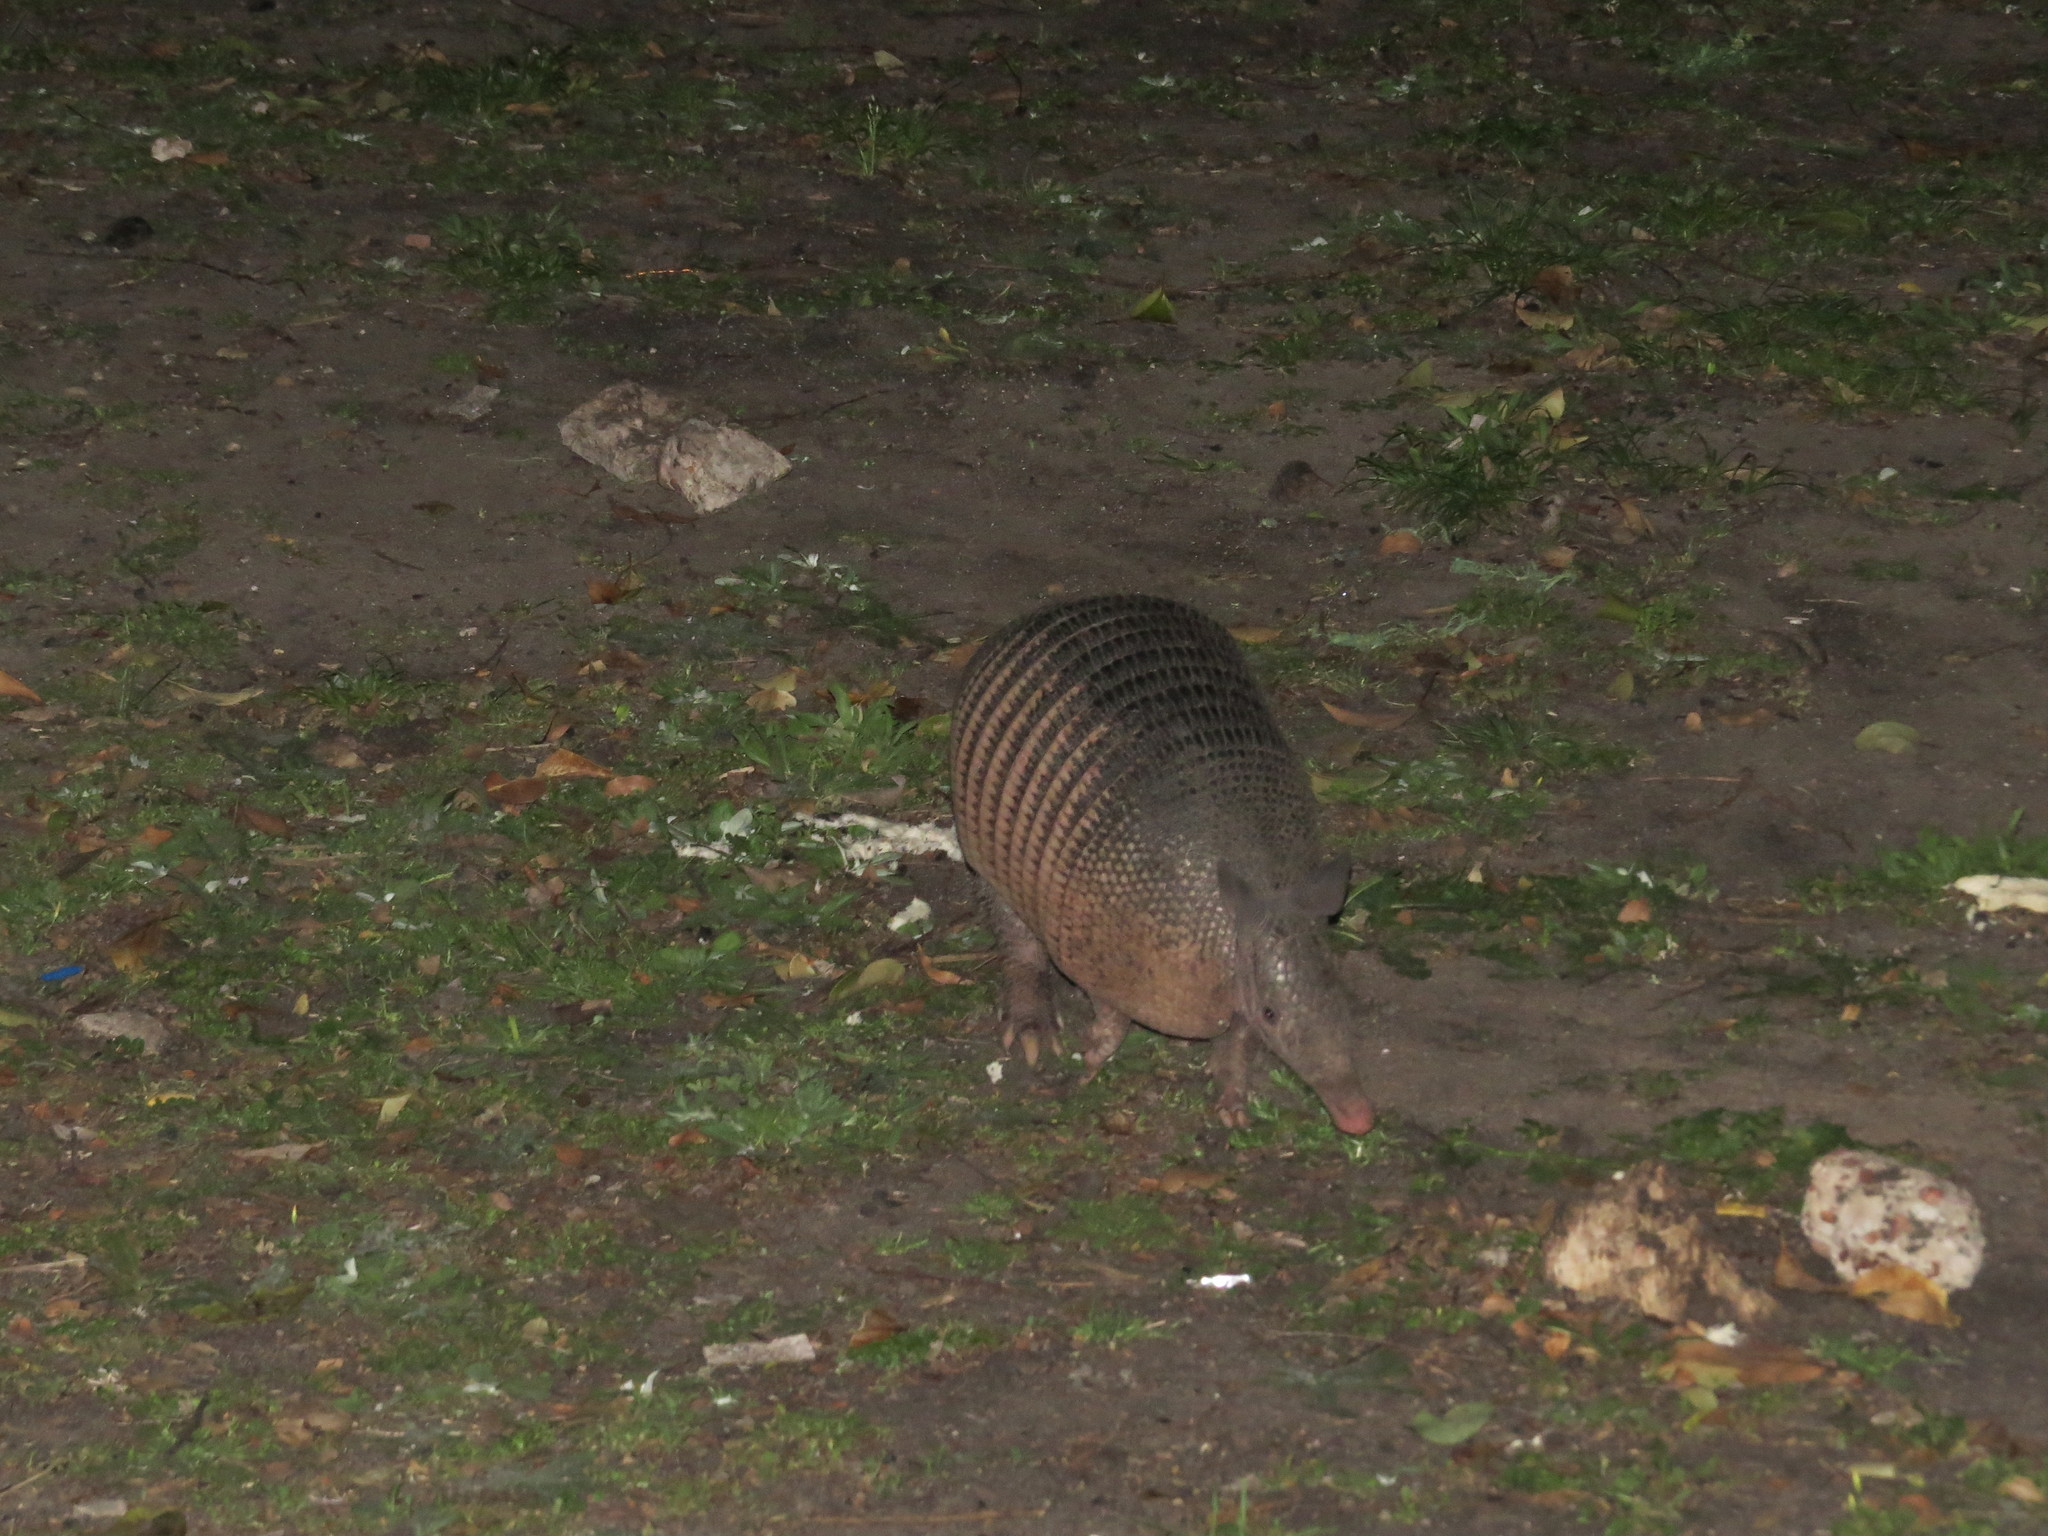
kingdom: Animalia
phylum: Chordata
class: Mammalia
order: Cingulata
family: Dasypodidae
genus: Dasypus
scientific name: Dasypus novemcinctus
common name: Nine-banded armadillo
